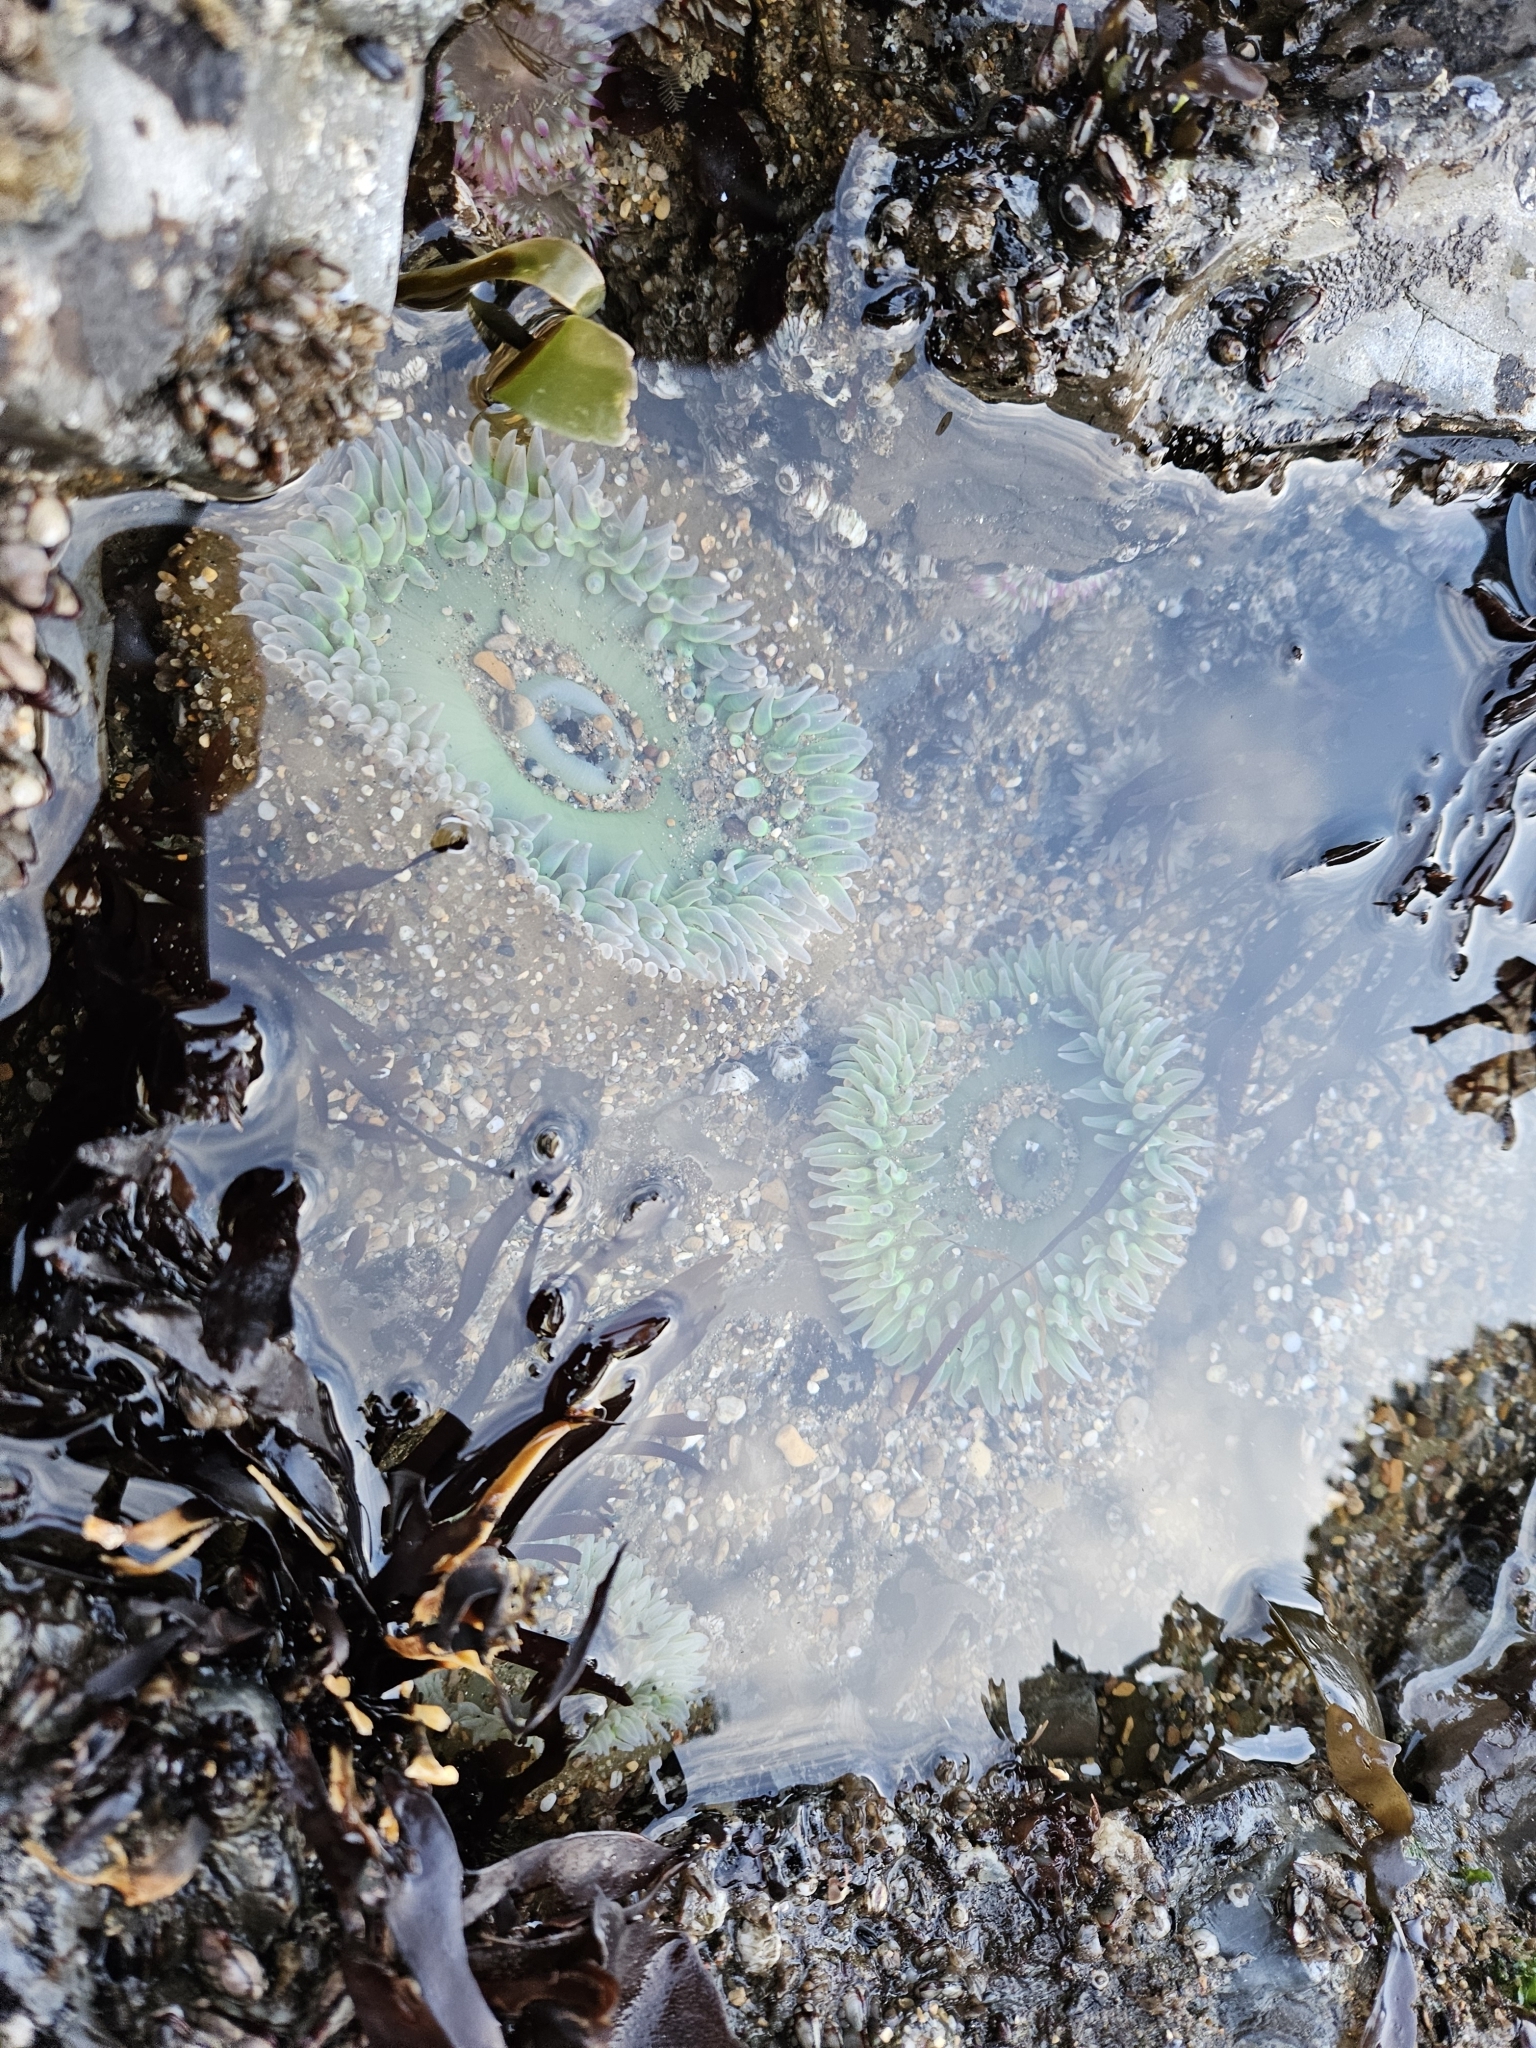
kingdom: Animalia
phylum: Cnidaria
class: Anthozoa
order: Actiniaria
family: Actiniidae
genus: Anthopleura
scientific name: Anthopleura xanthogrammica
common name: Giant green anemone
